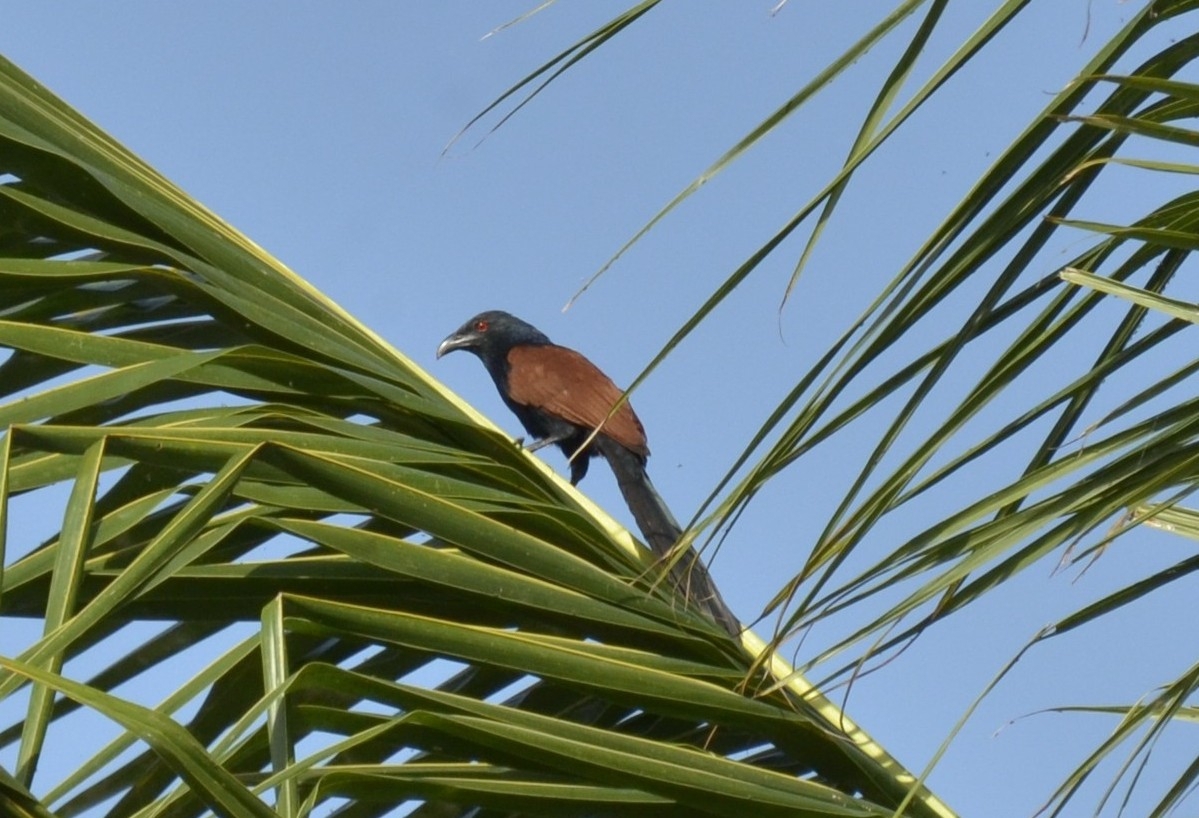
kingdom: Animalia
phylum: Chordata
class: Aves
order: Cuculiformes
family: Cuculidae
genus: Centropus
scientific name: Centropus sinensis
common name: Greater coucal
